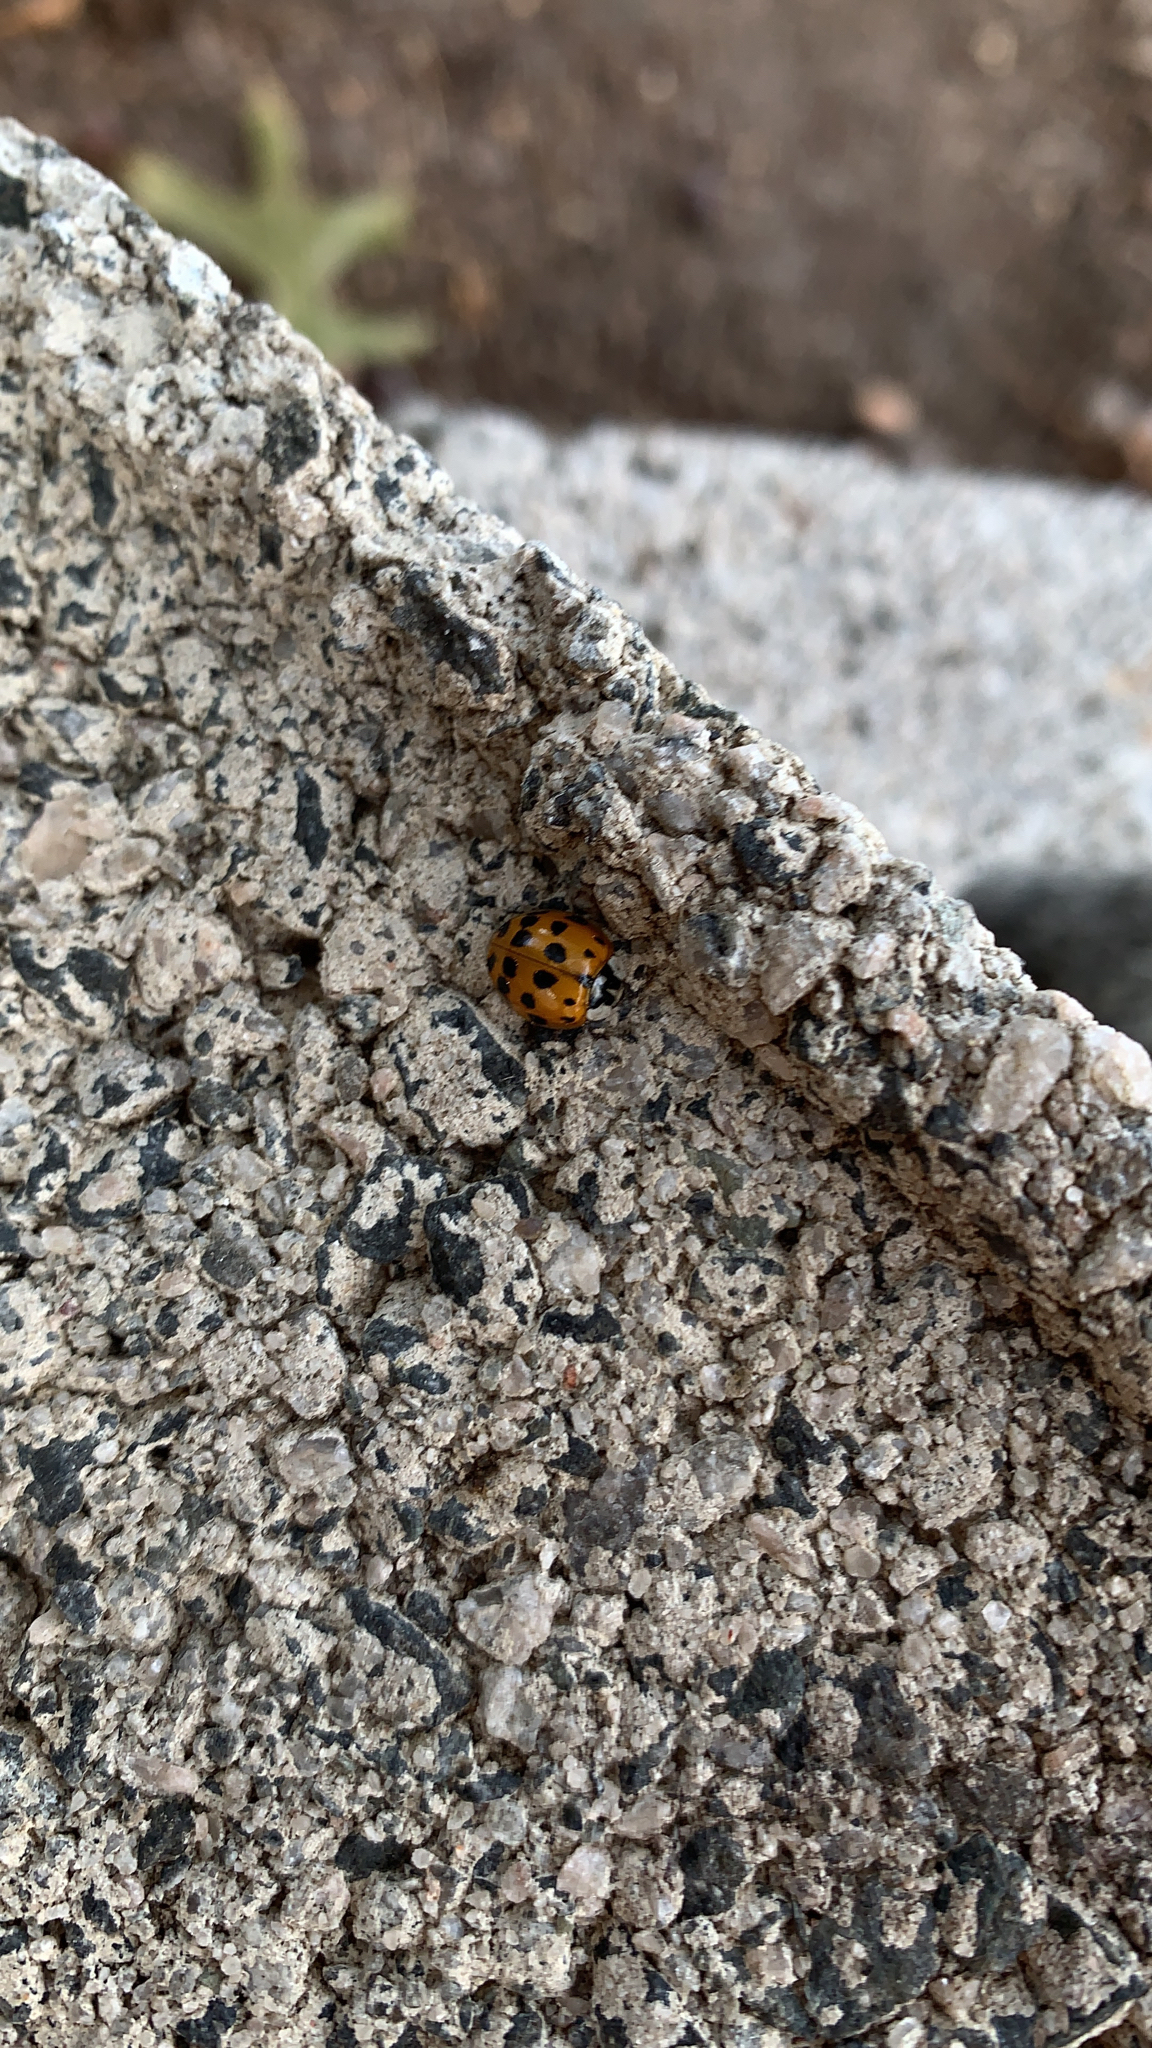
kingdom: Animalia
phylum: Arthropoda
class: Insecta
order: Coleoptera
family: Coccinellidae
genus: Harmonia
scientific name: Harmonia axyridis
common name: Harlequin ladybird
